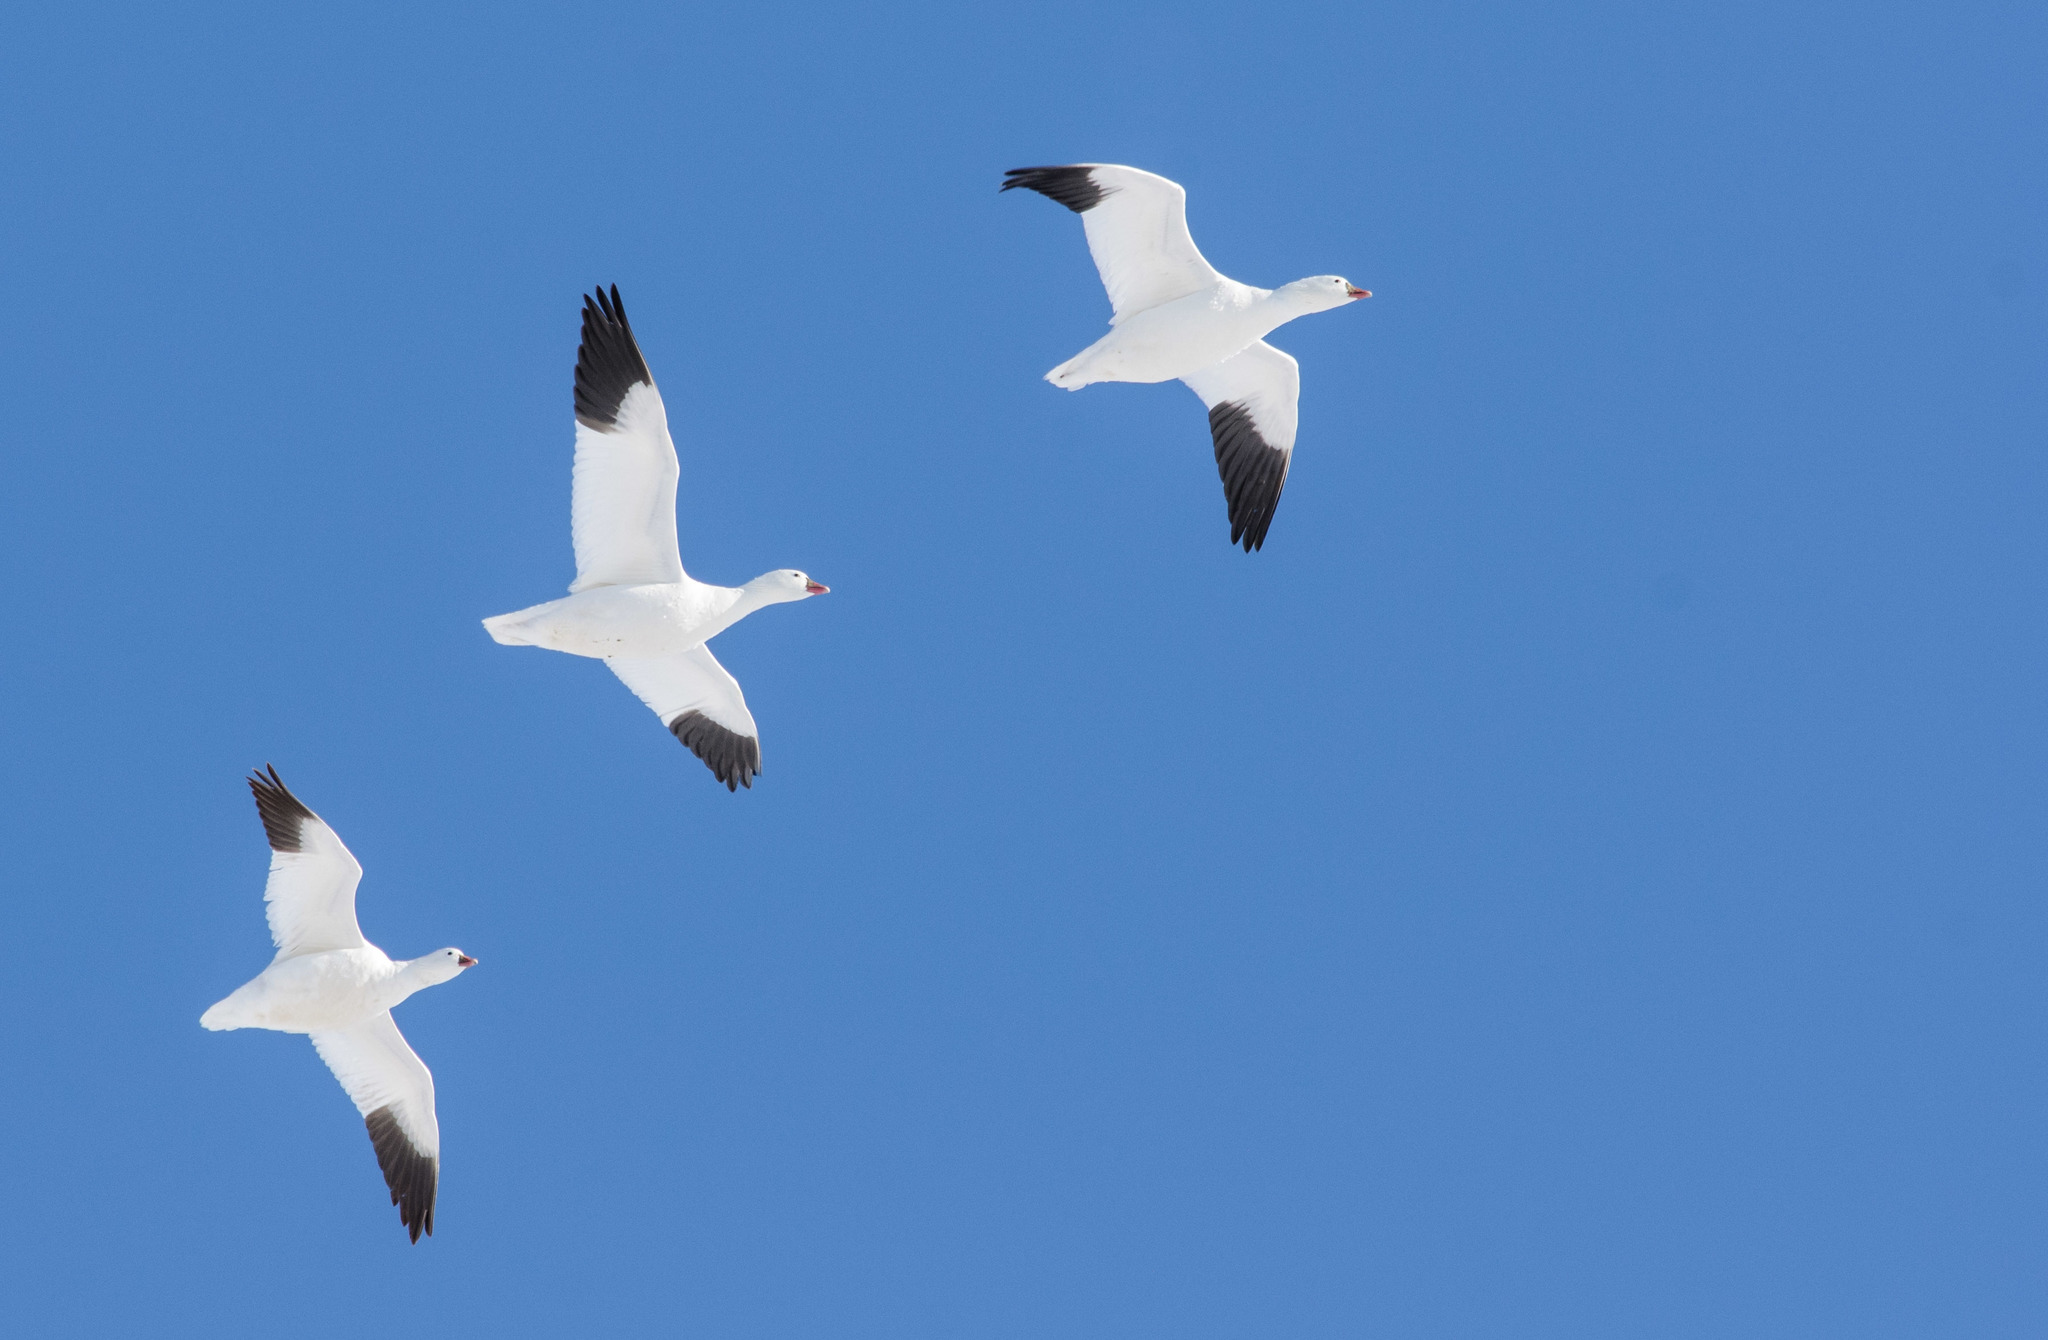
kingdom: Animalia
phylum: Chordata
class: Aves
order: Anseriformes
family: Anatidae
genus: Anser
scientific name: Anser caerulescens
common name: Snow goose
